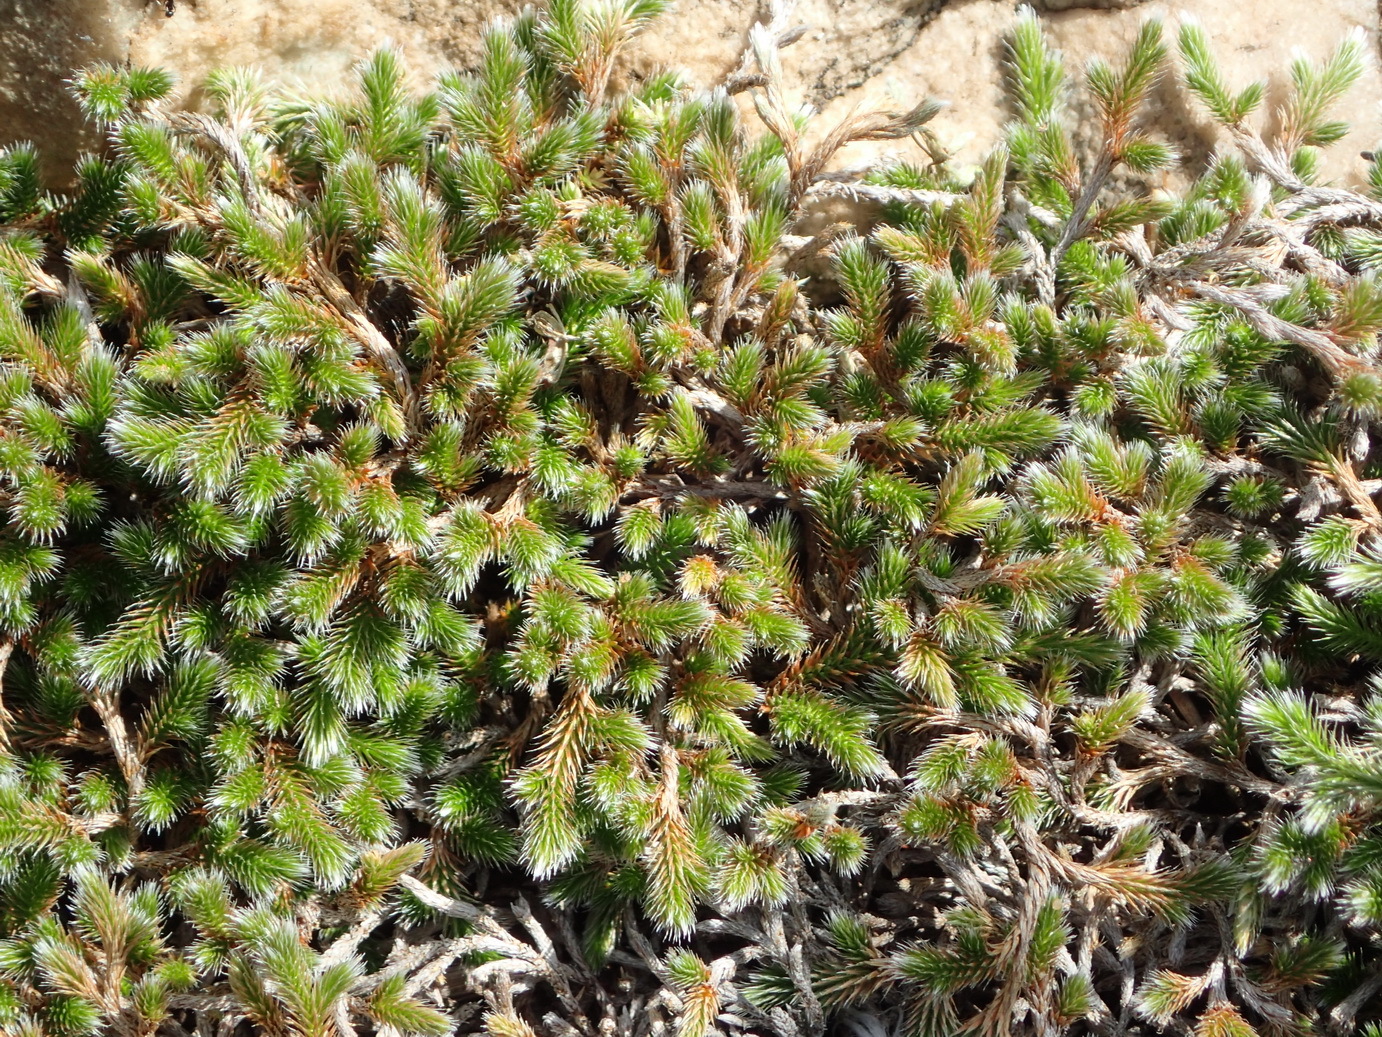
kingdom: Plantae
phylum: Tracheophyta
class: Lycopodiopsida
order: Selaginellales
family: Selaginellaceae
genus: Selaginella
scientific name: Selaginella dregei
